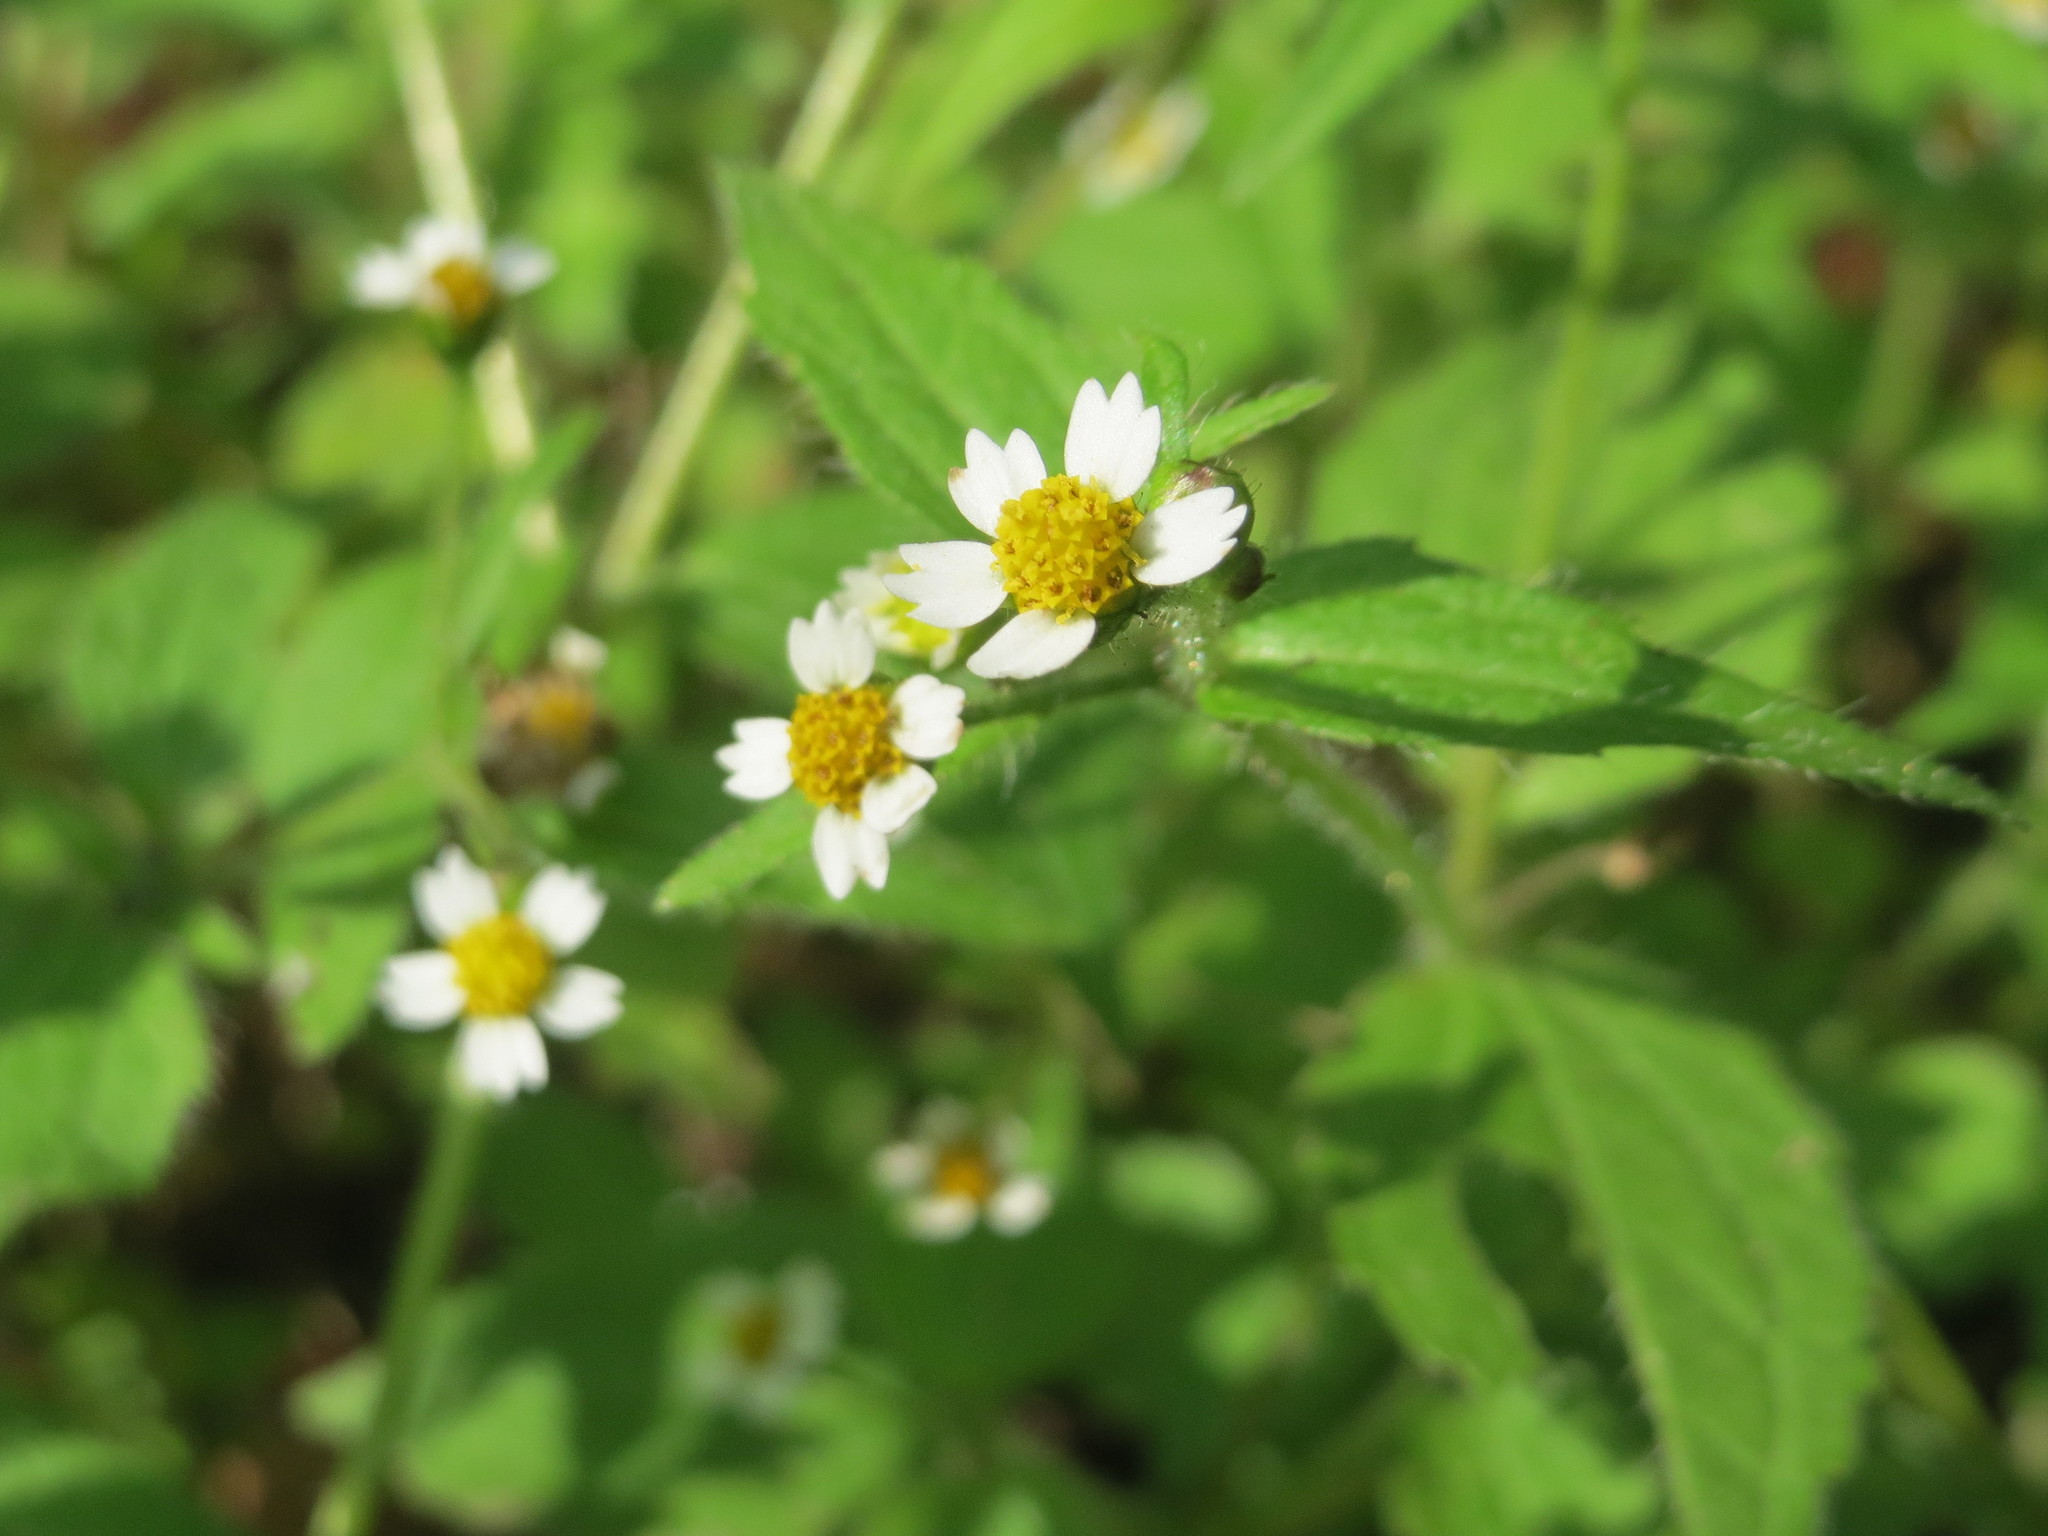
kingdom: Plantae
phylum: Tracheophyta
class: Magnoliopsida
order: Asterales
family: Asteraceae
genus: Galinsoga
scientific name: Galinsoga quadriradiata
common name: Shaggy soldier
